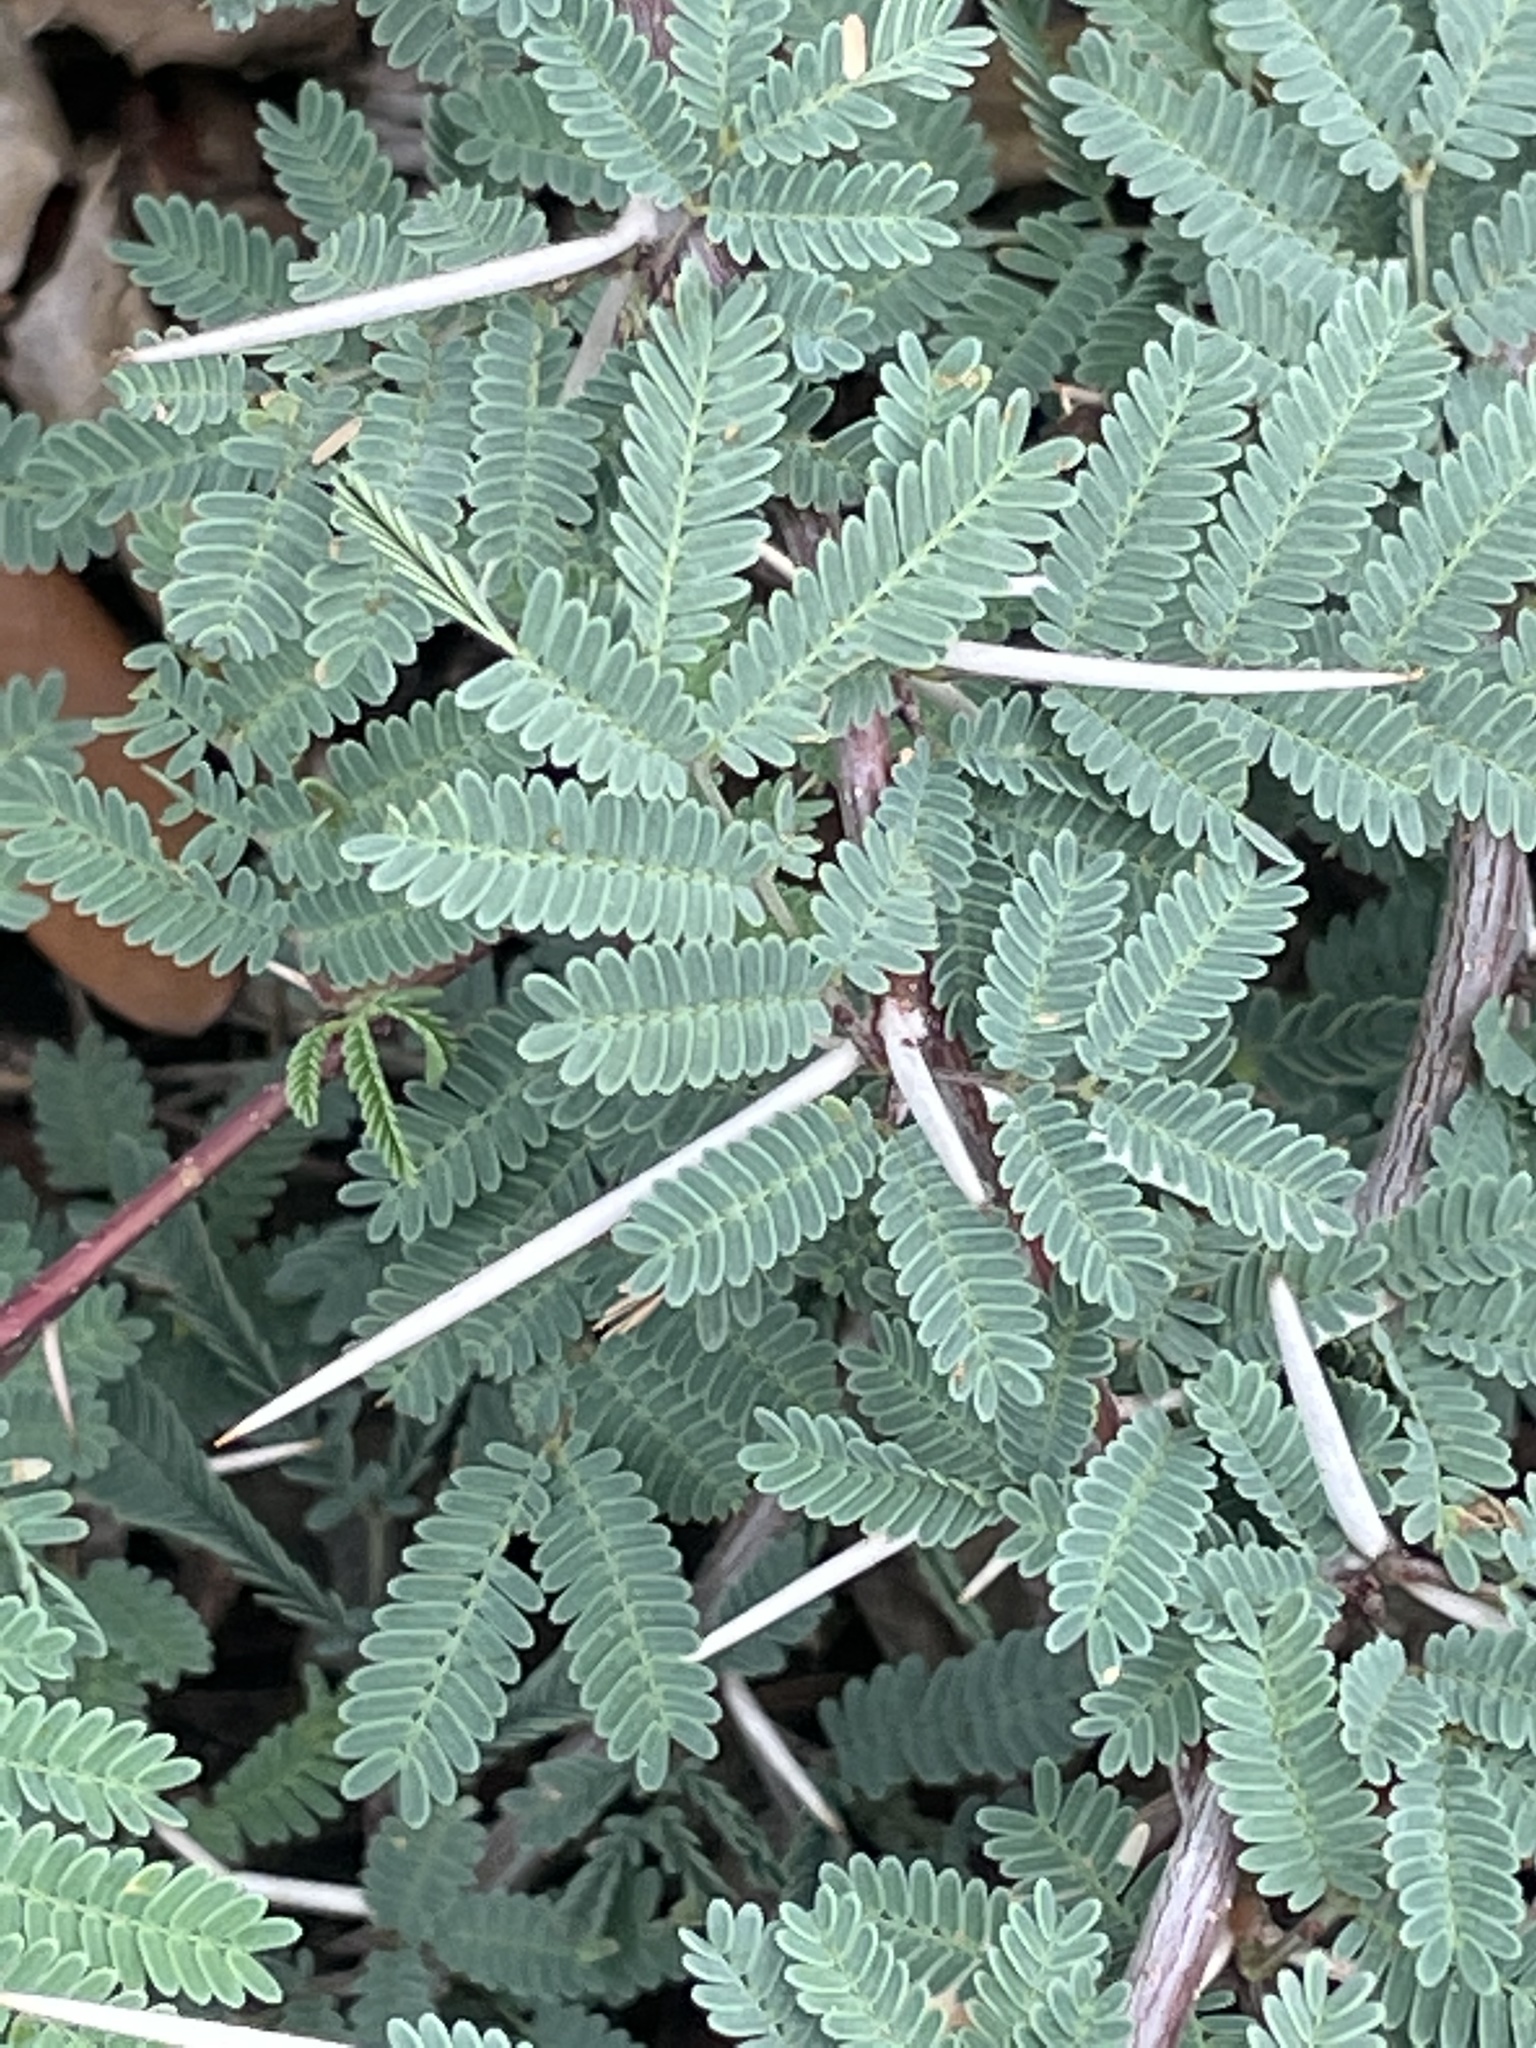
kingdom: Plantae
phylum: Tracheophyta
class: Magnoliopsida
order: Fabales
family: Fabaceae
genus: Vachellia
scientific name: Vachellia farnesiana
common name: Sweet acacia
